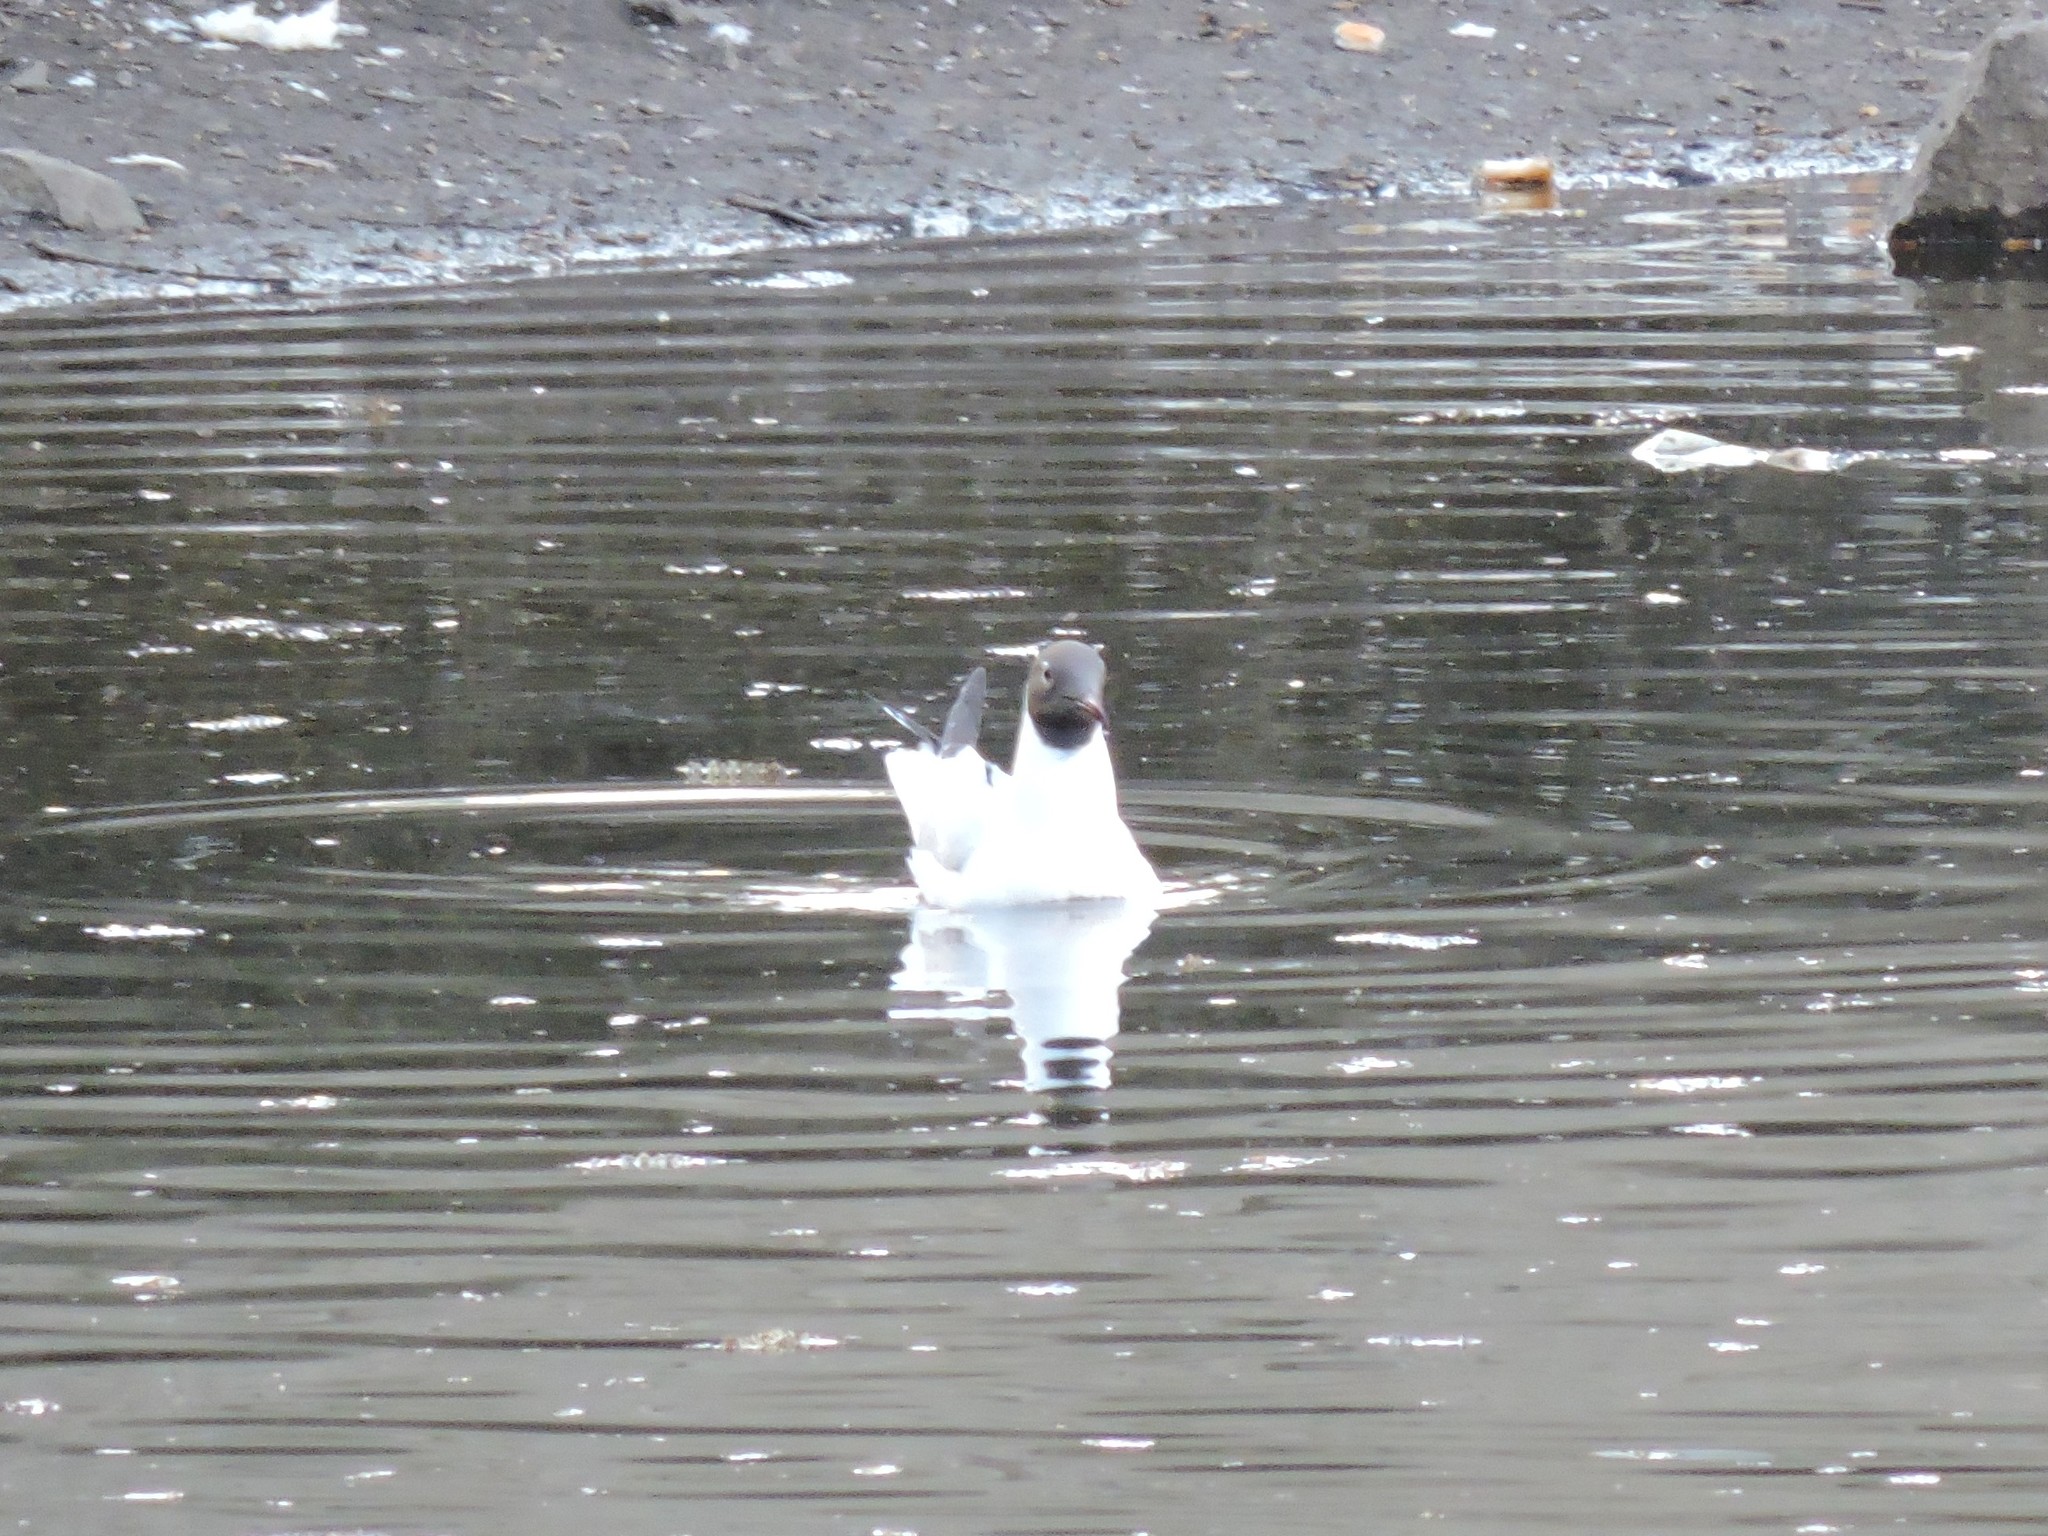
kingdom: Animalia
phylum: Chordata
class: Aves
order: Charadriiformes
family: Laridae
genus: Chroicocephalus
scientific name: Chroicocephalus ridibundus
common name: Black-headed gull
